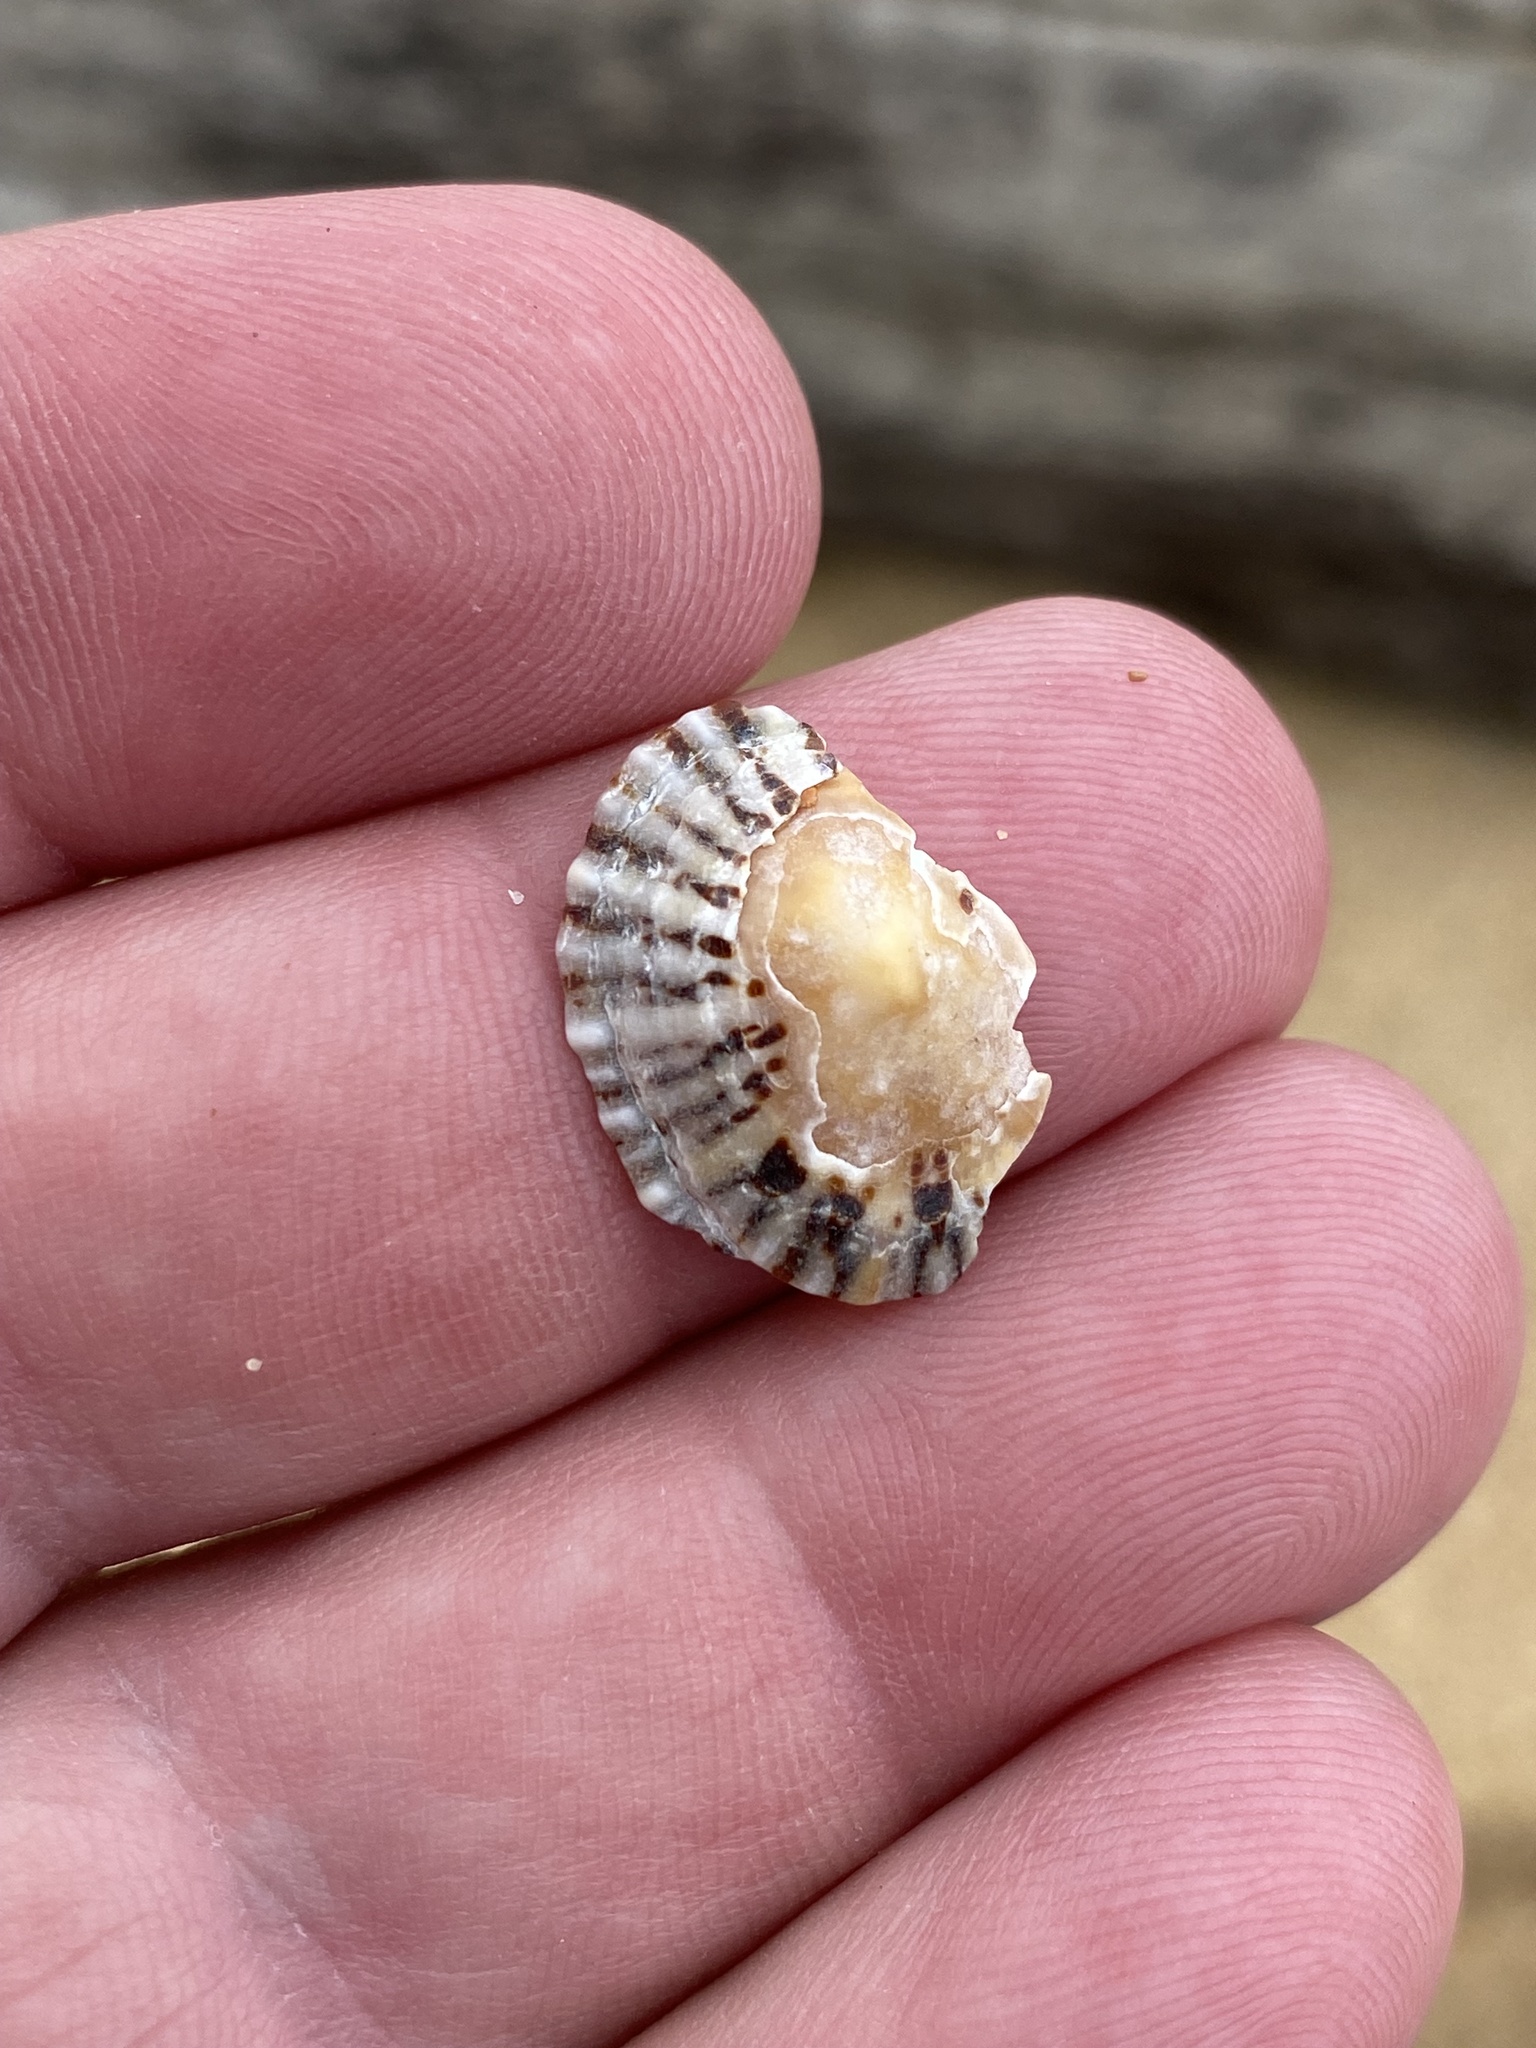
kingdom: Animalia
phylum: Mollusca
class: Gastropoda
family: Nacellidae
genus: Cellana
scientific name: Cellana tramoserica
